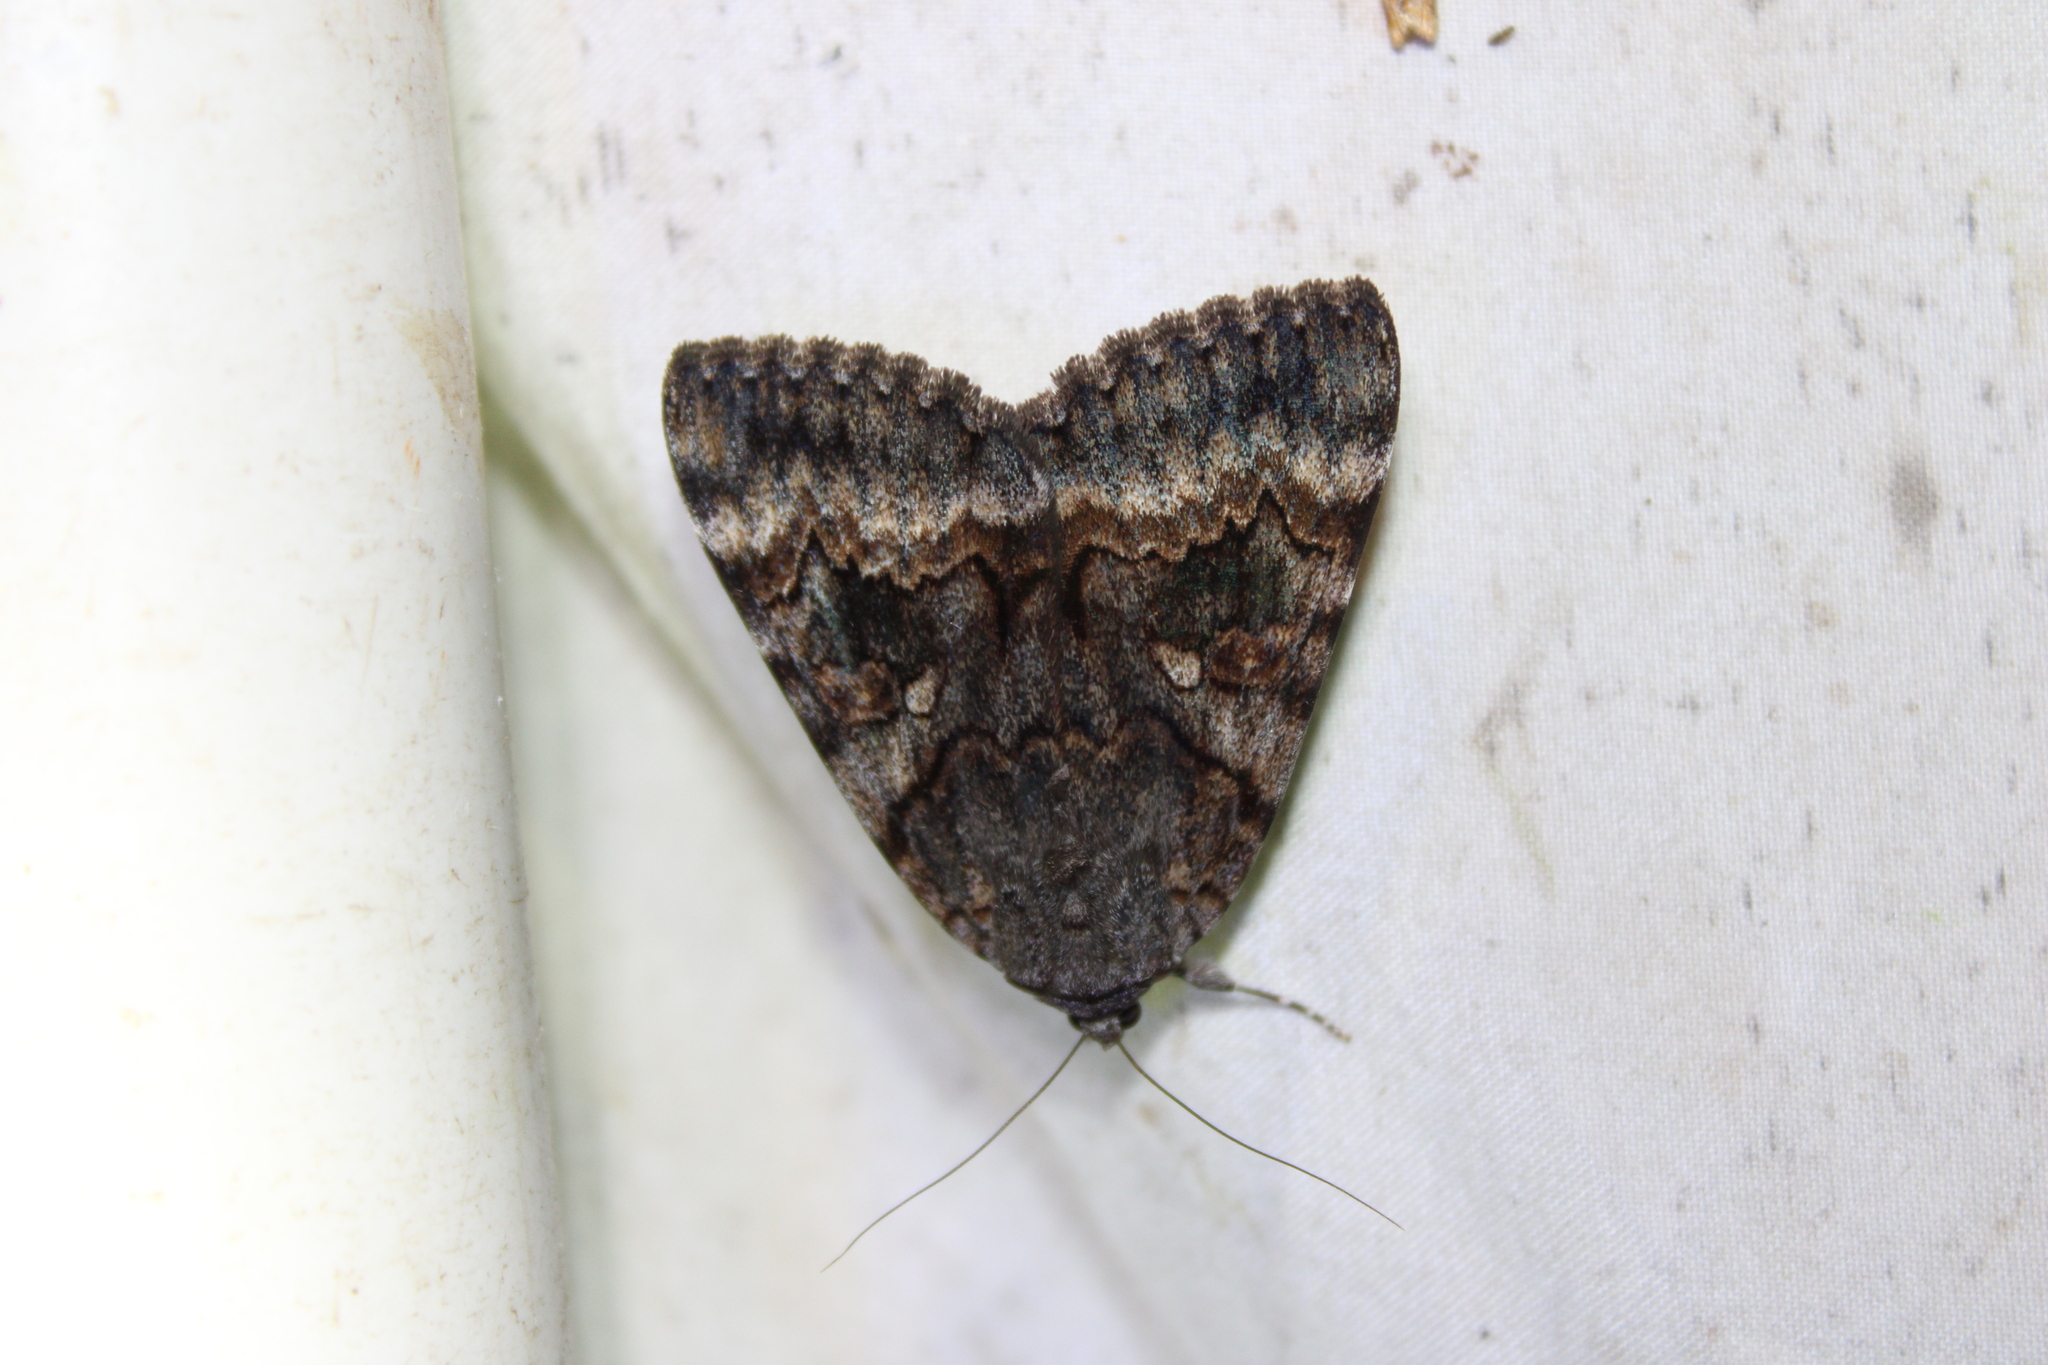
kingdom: Animalia
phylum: Arthropoda
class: Insecta
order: Lepidoptera
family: Erebidae
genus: Catocala
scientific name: Catocala epione
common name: Epione underwing
